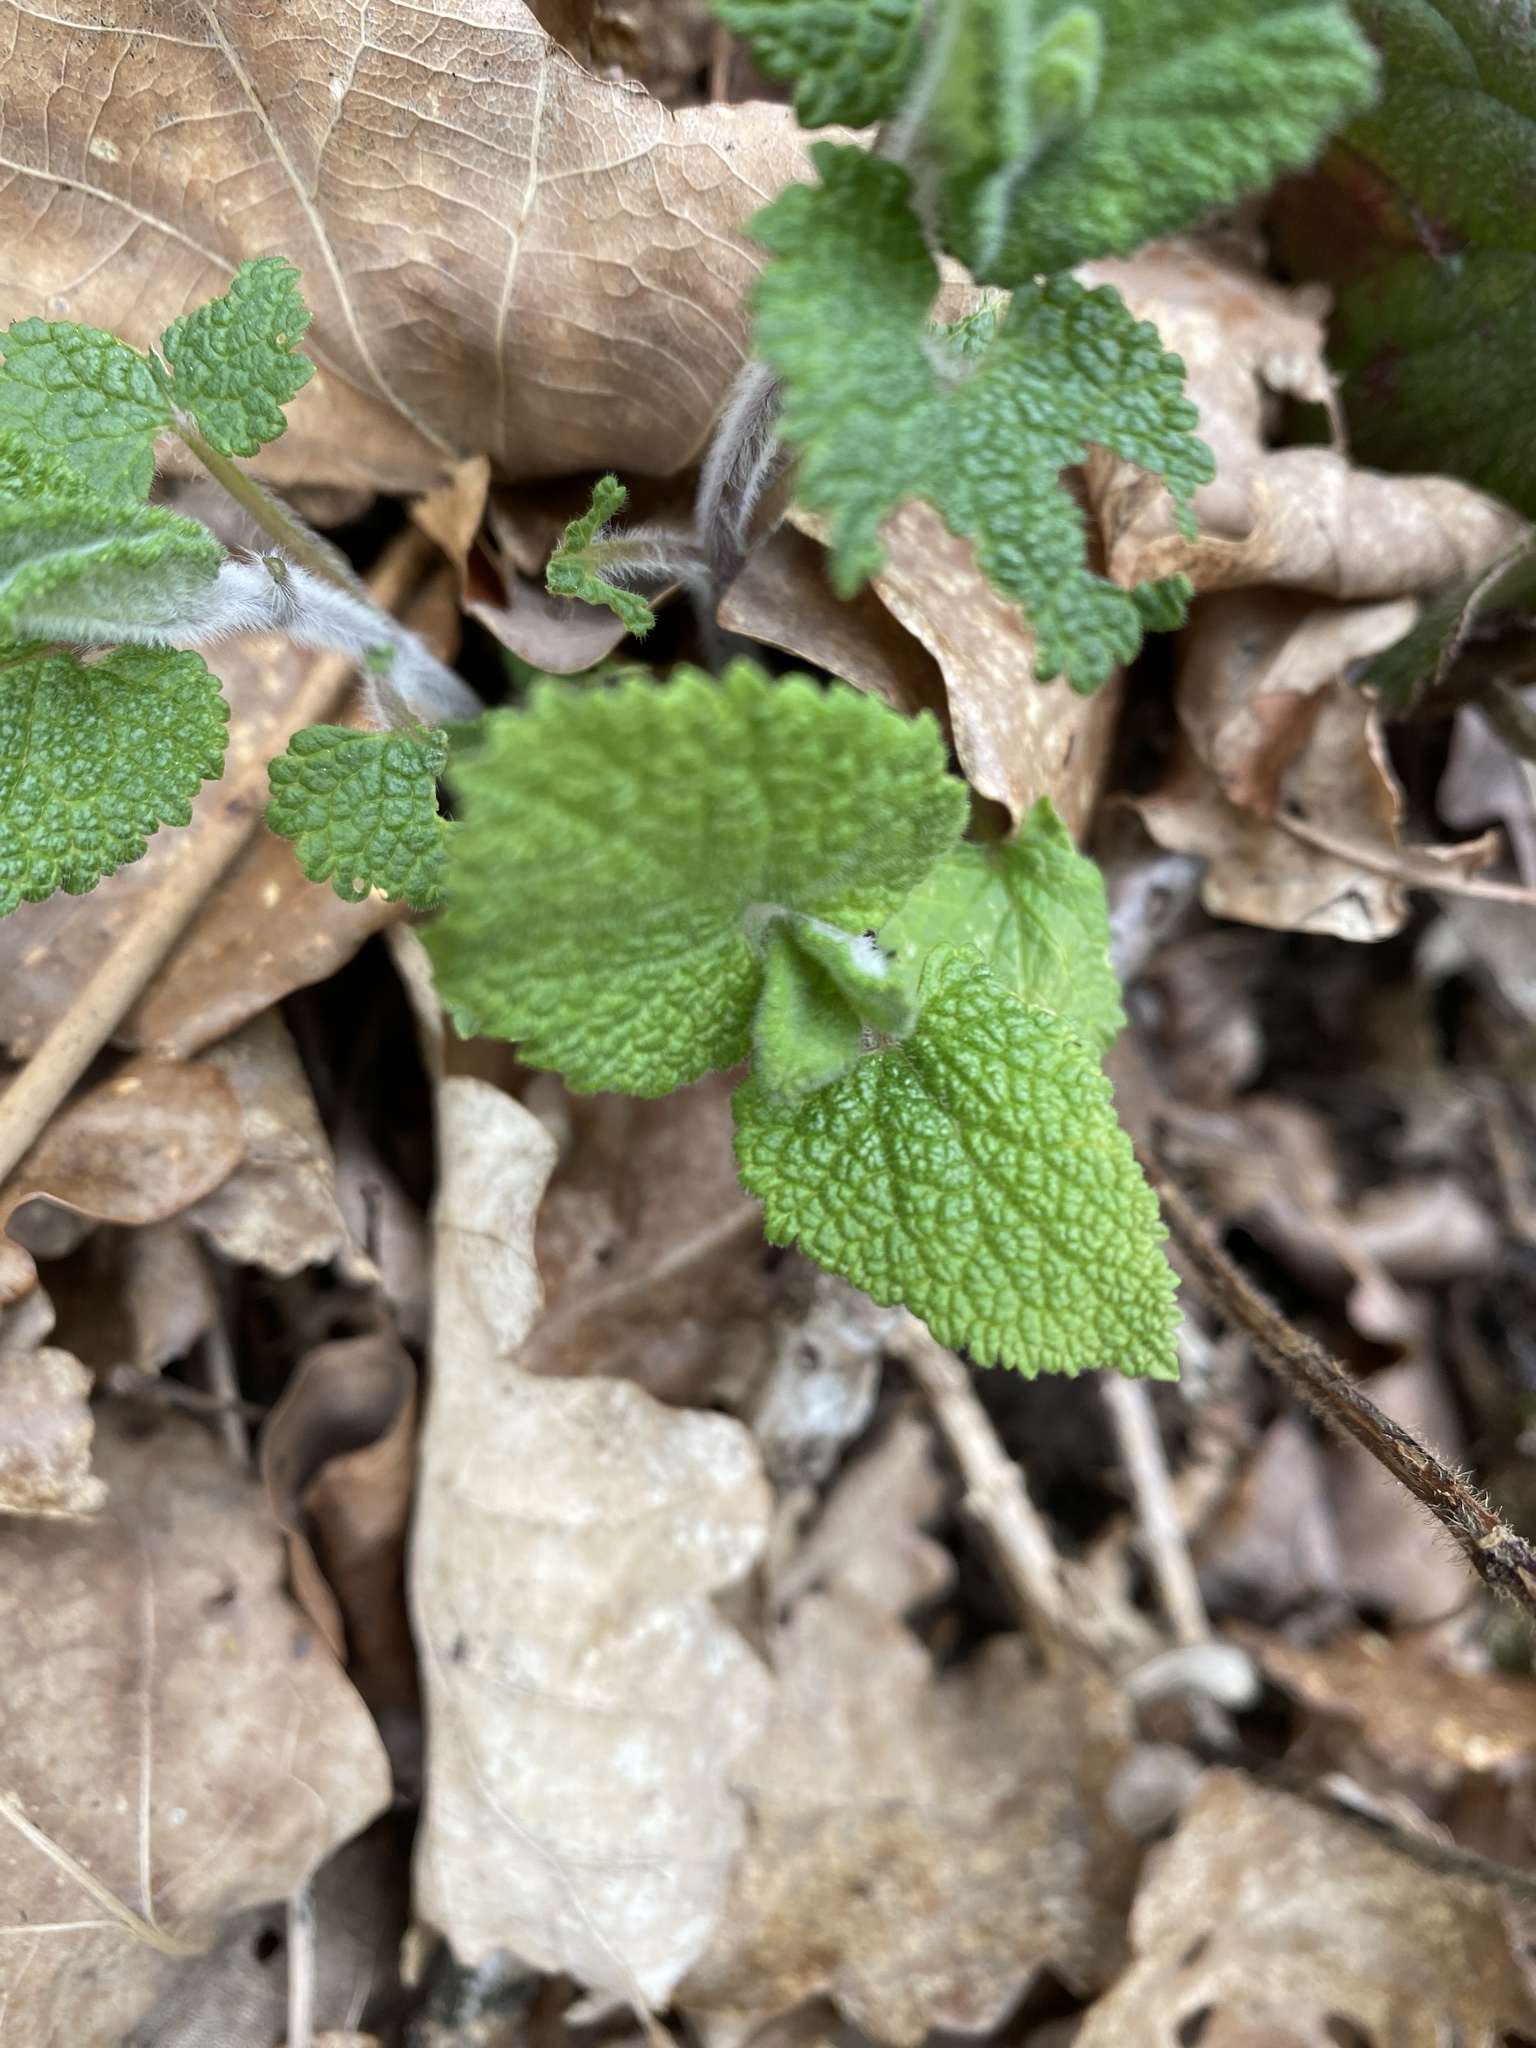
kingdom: Plantae
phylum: Tracheophyta
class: Magnoliopsida
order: Lamiales
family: Lamiaceae
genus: Stachys
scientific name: Stachys sylvatica
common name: Hedge woundwort
